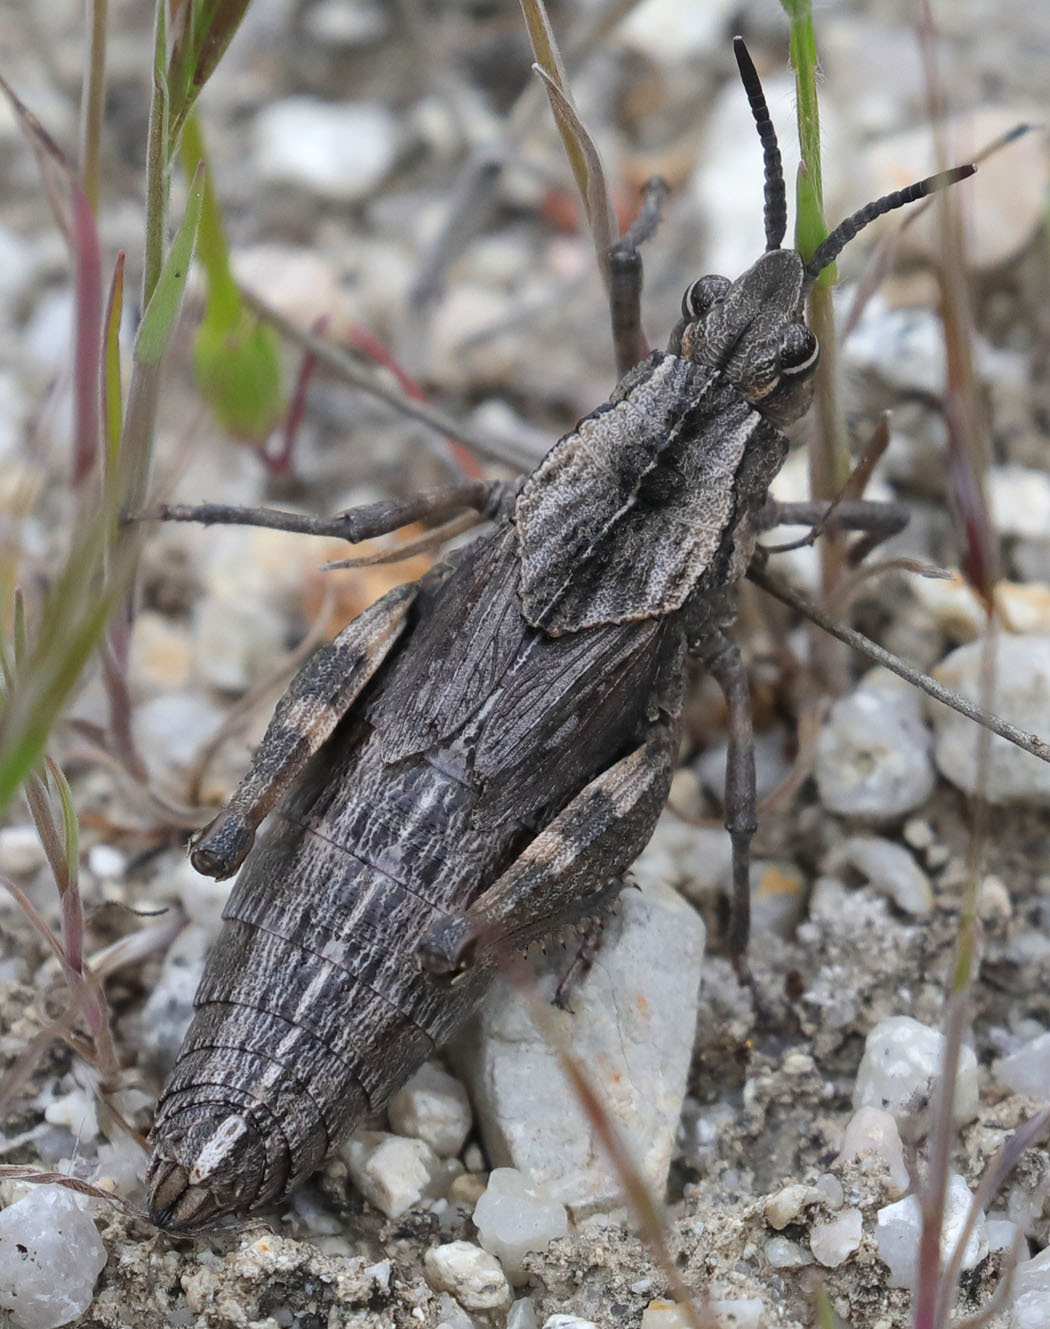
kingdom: Animalia
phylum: Arthropoda
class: Insecta
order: Orthoptera
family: Romaleidae
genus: Dracotettix
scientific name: Dracotettix monstrosus
